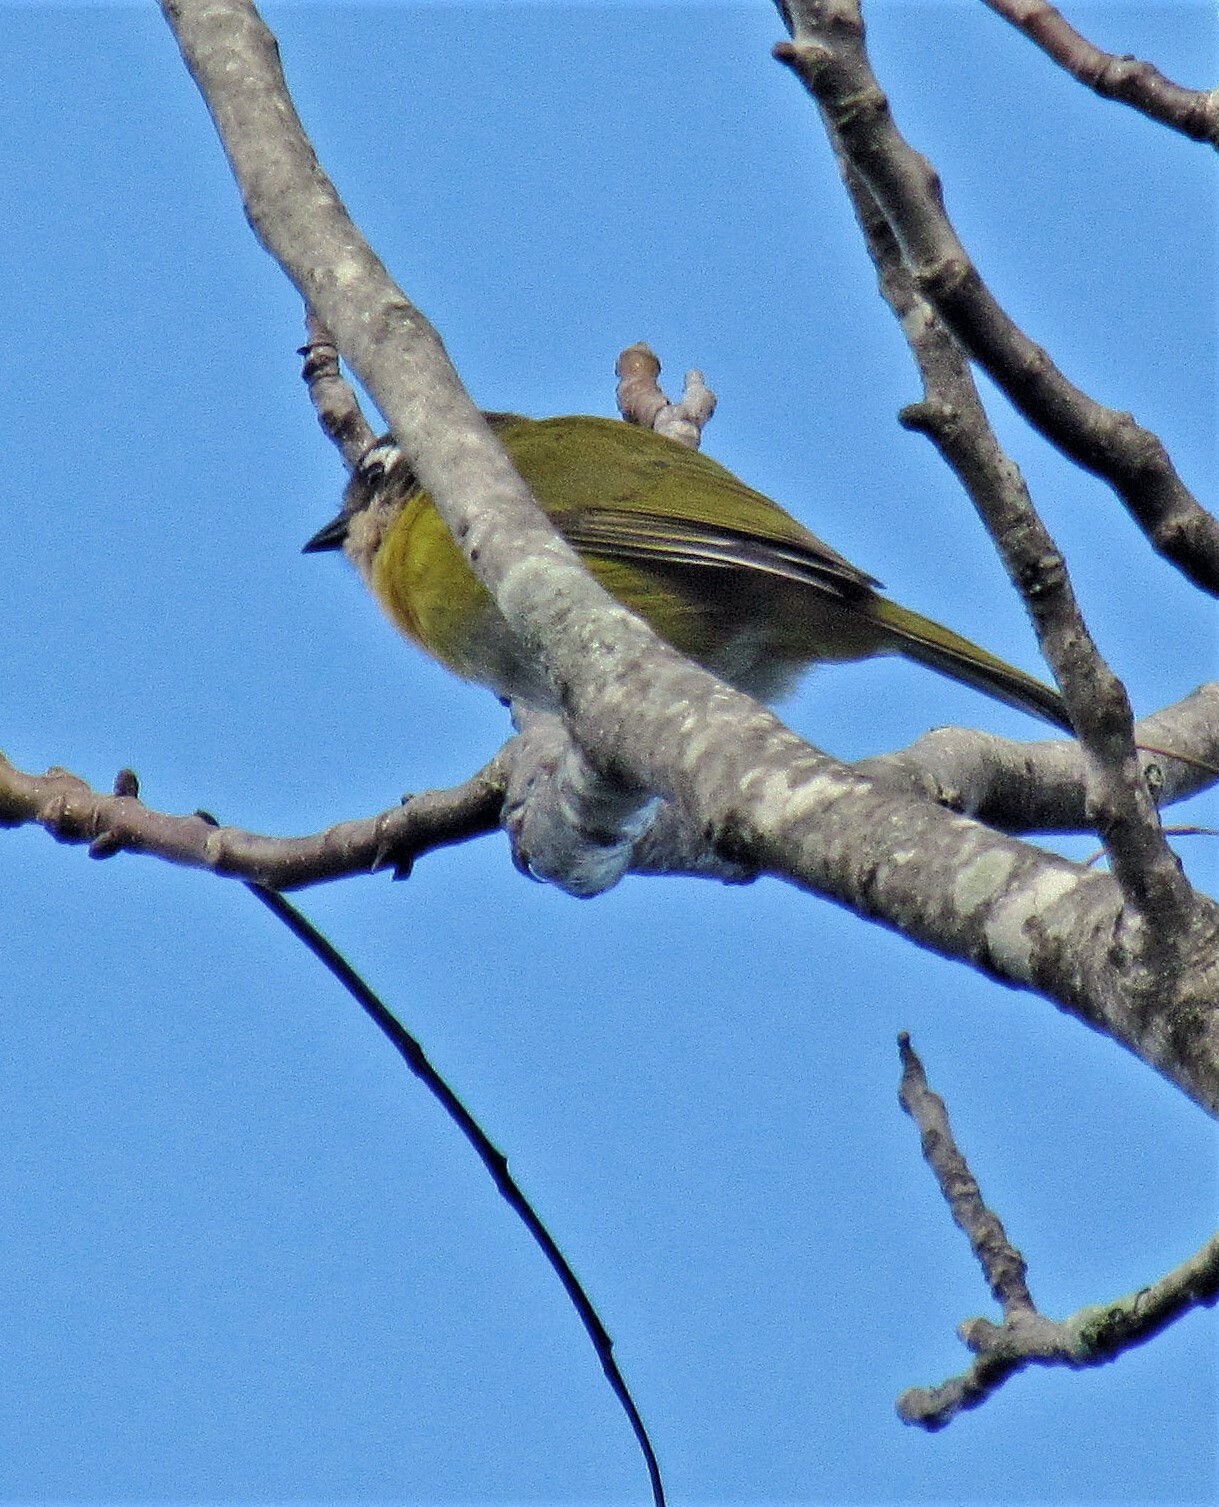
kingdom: Animalia
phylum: Chordata
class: Aves
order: Passeriformes
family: Passerellidae
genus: Chlorospingus
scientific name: Chlorospingus flavopectus
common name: Common chlorospingus
